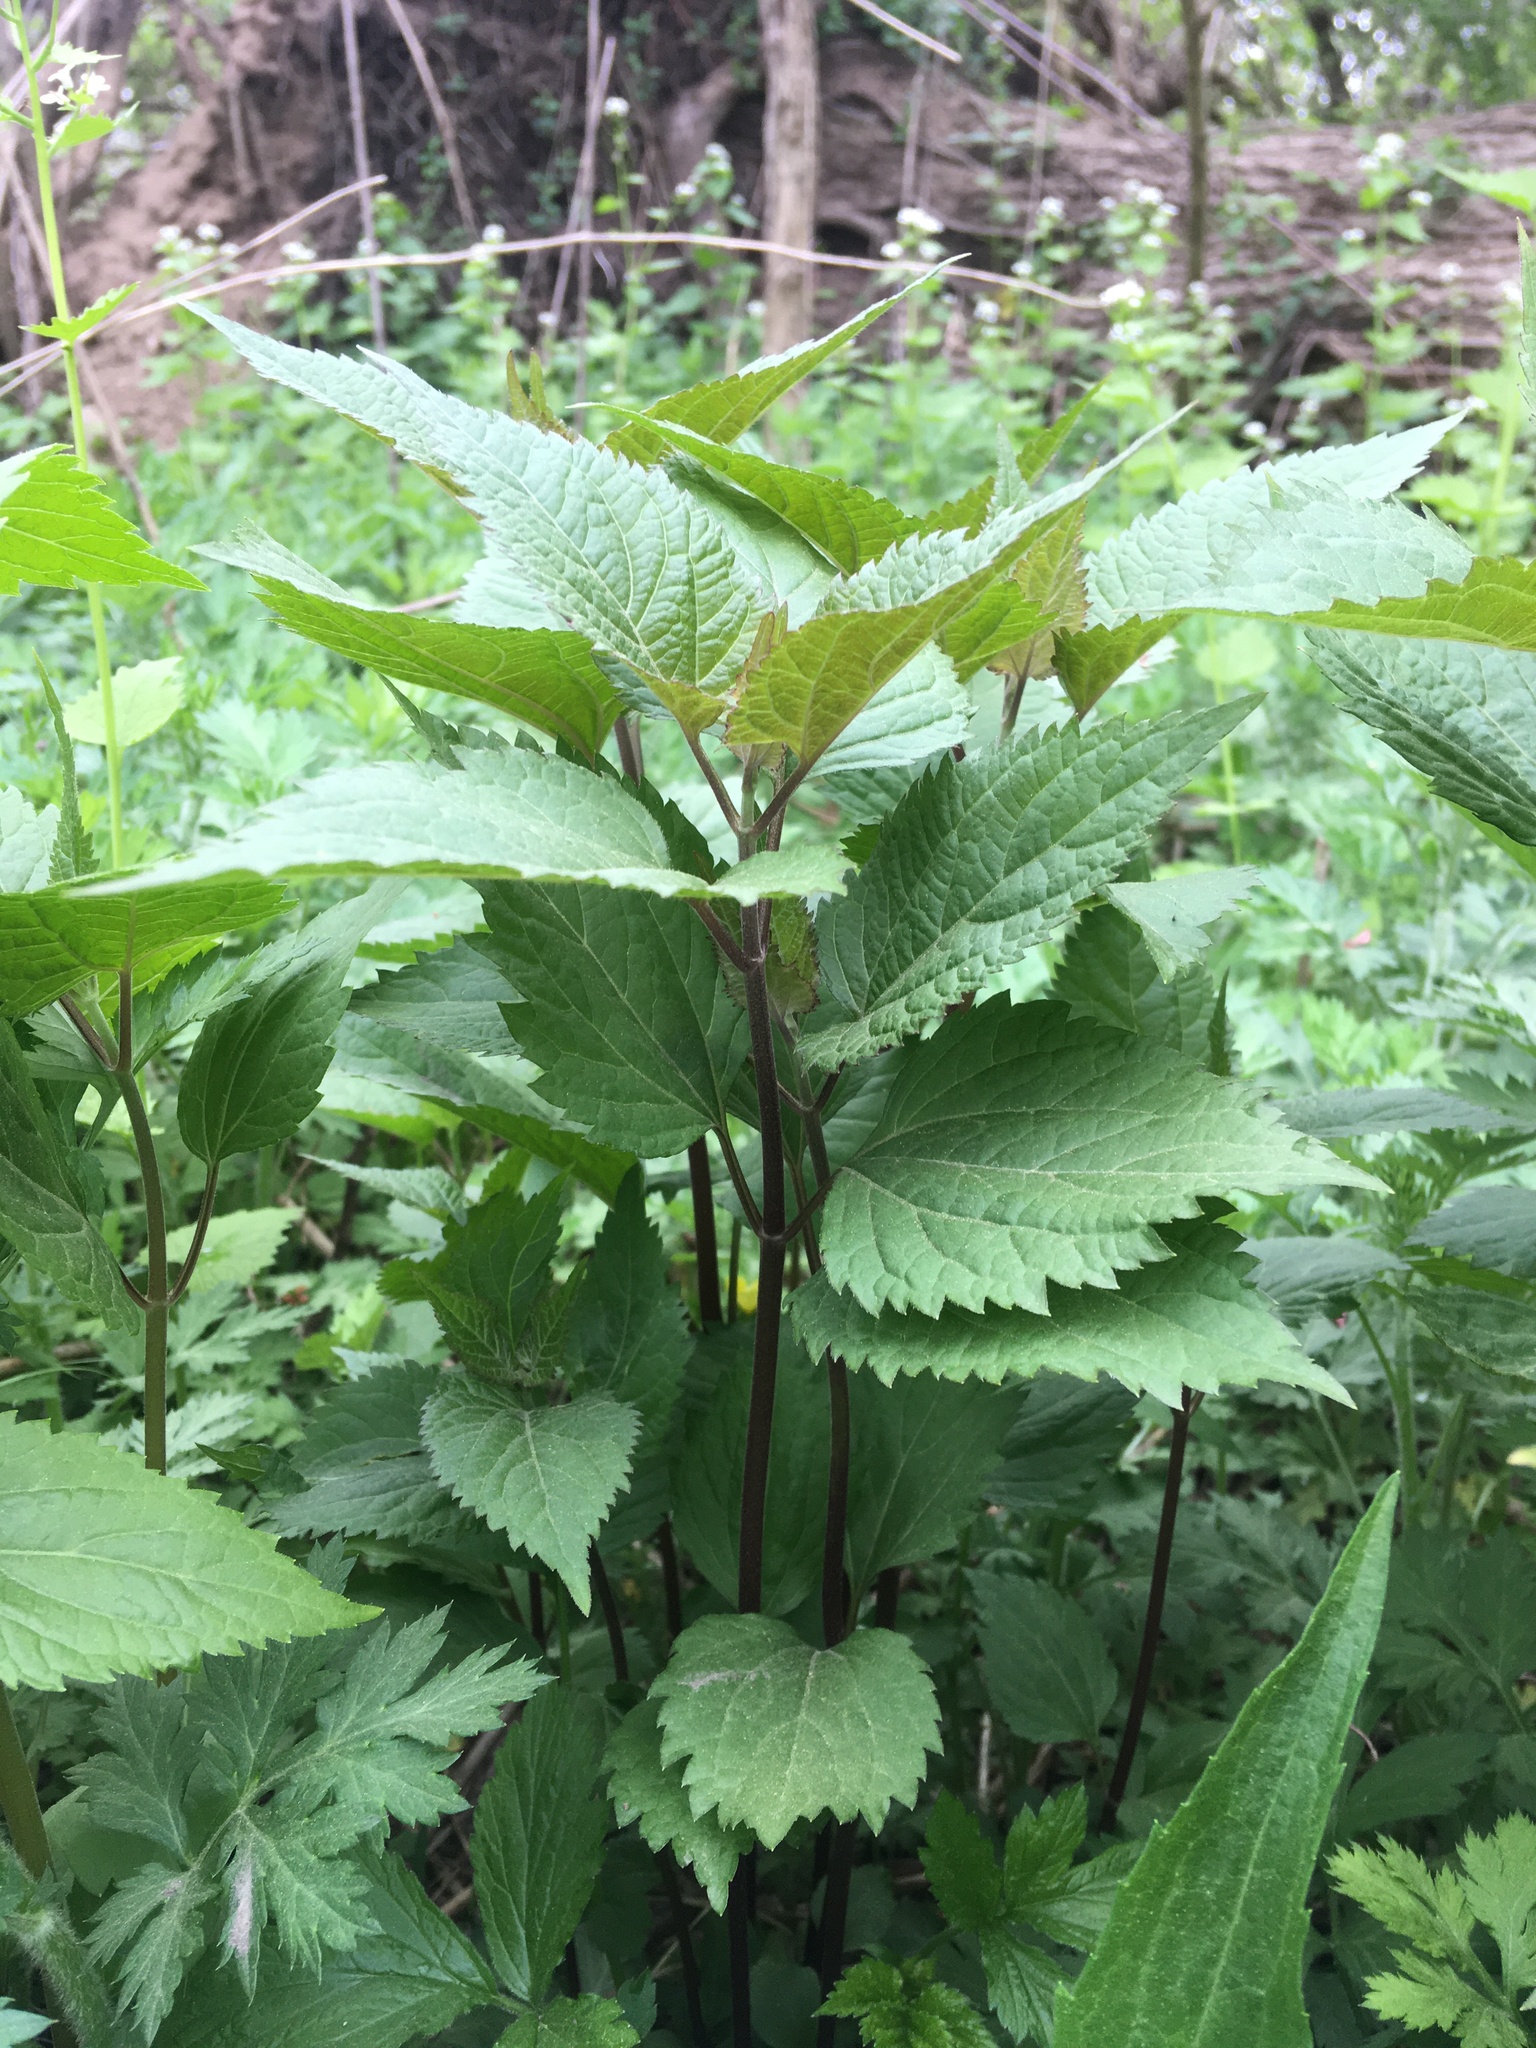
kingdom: Plantae
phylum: Tracheophyta
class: Magnoliopsida
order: Asterales
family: Asteraceae
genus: Ageratina
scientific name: Ageratina altissima
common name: White snakeroot
